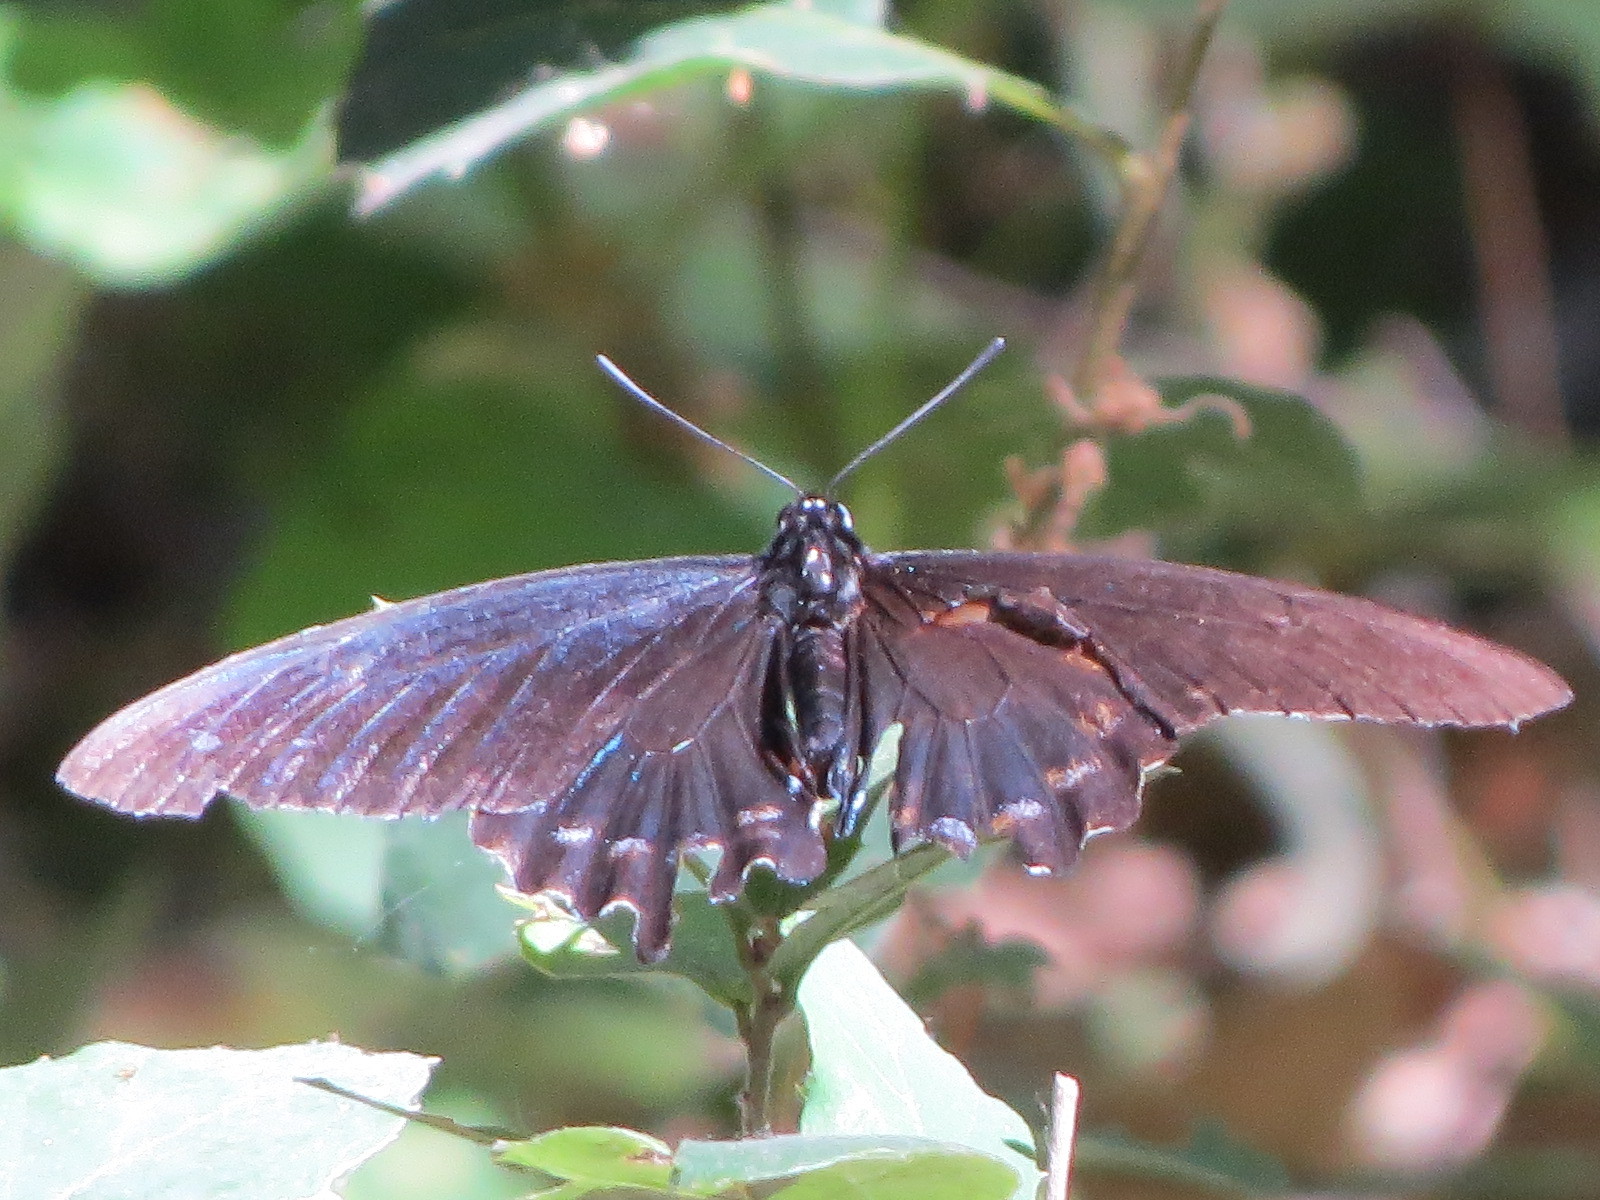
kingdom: Animalia
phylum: Arthropoda
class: Insecta
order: Lepidoptera
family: Papilionidae
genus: Battus
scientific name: Battus philenor
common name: Pipevine swallowtail
